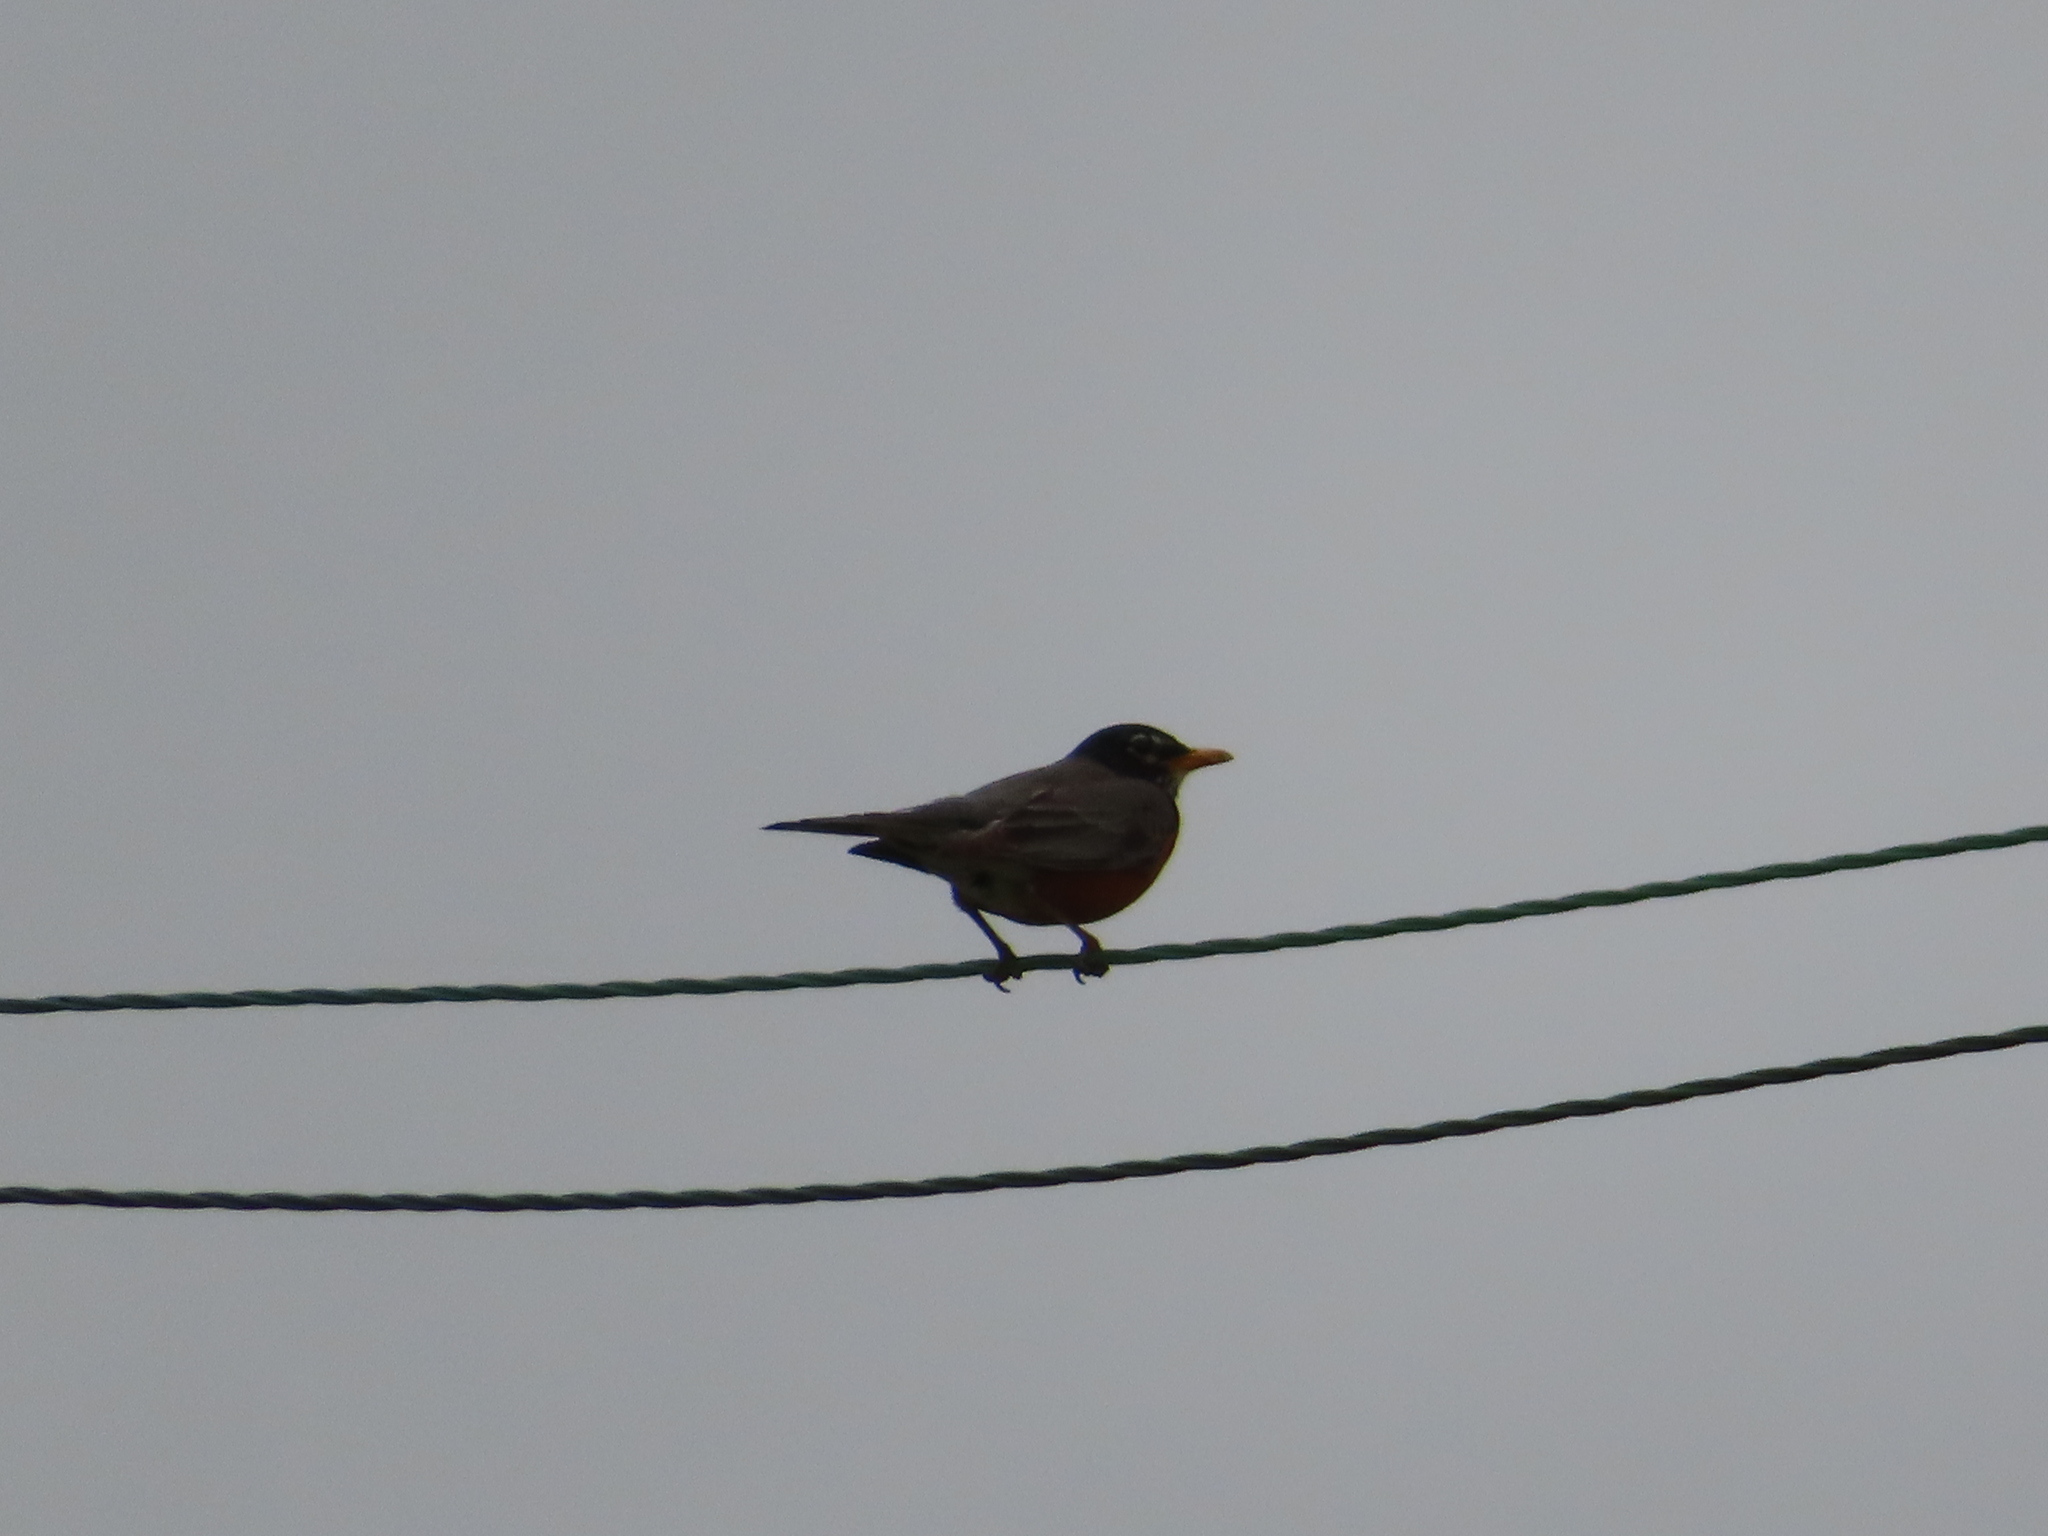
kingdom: Animalia
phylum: Chordata
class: Aves
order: Passeriformes
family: Turdidae
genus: Turdus
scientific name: Turdus migratorius
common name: American robin
